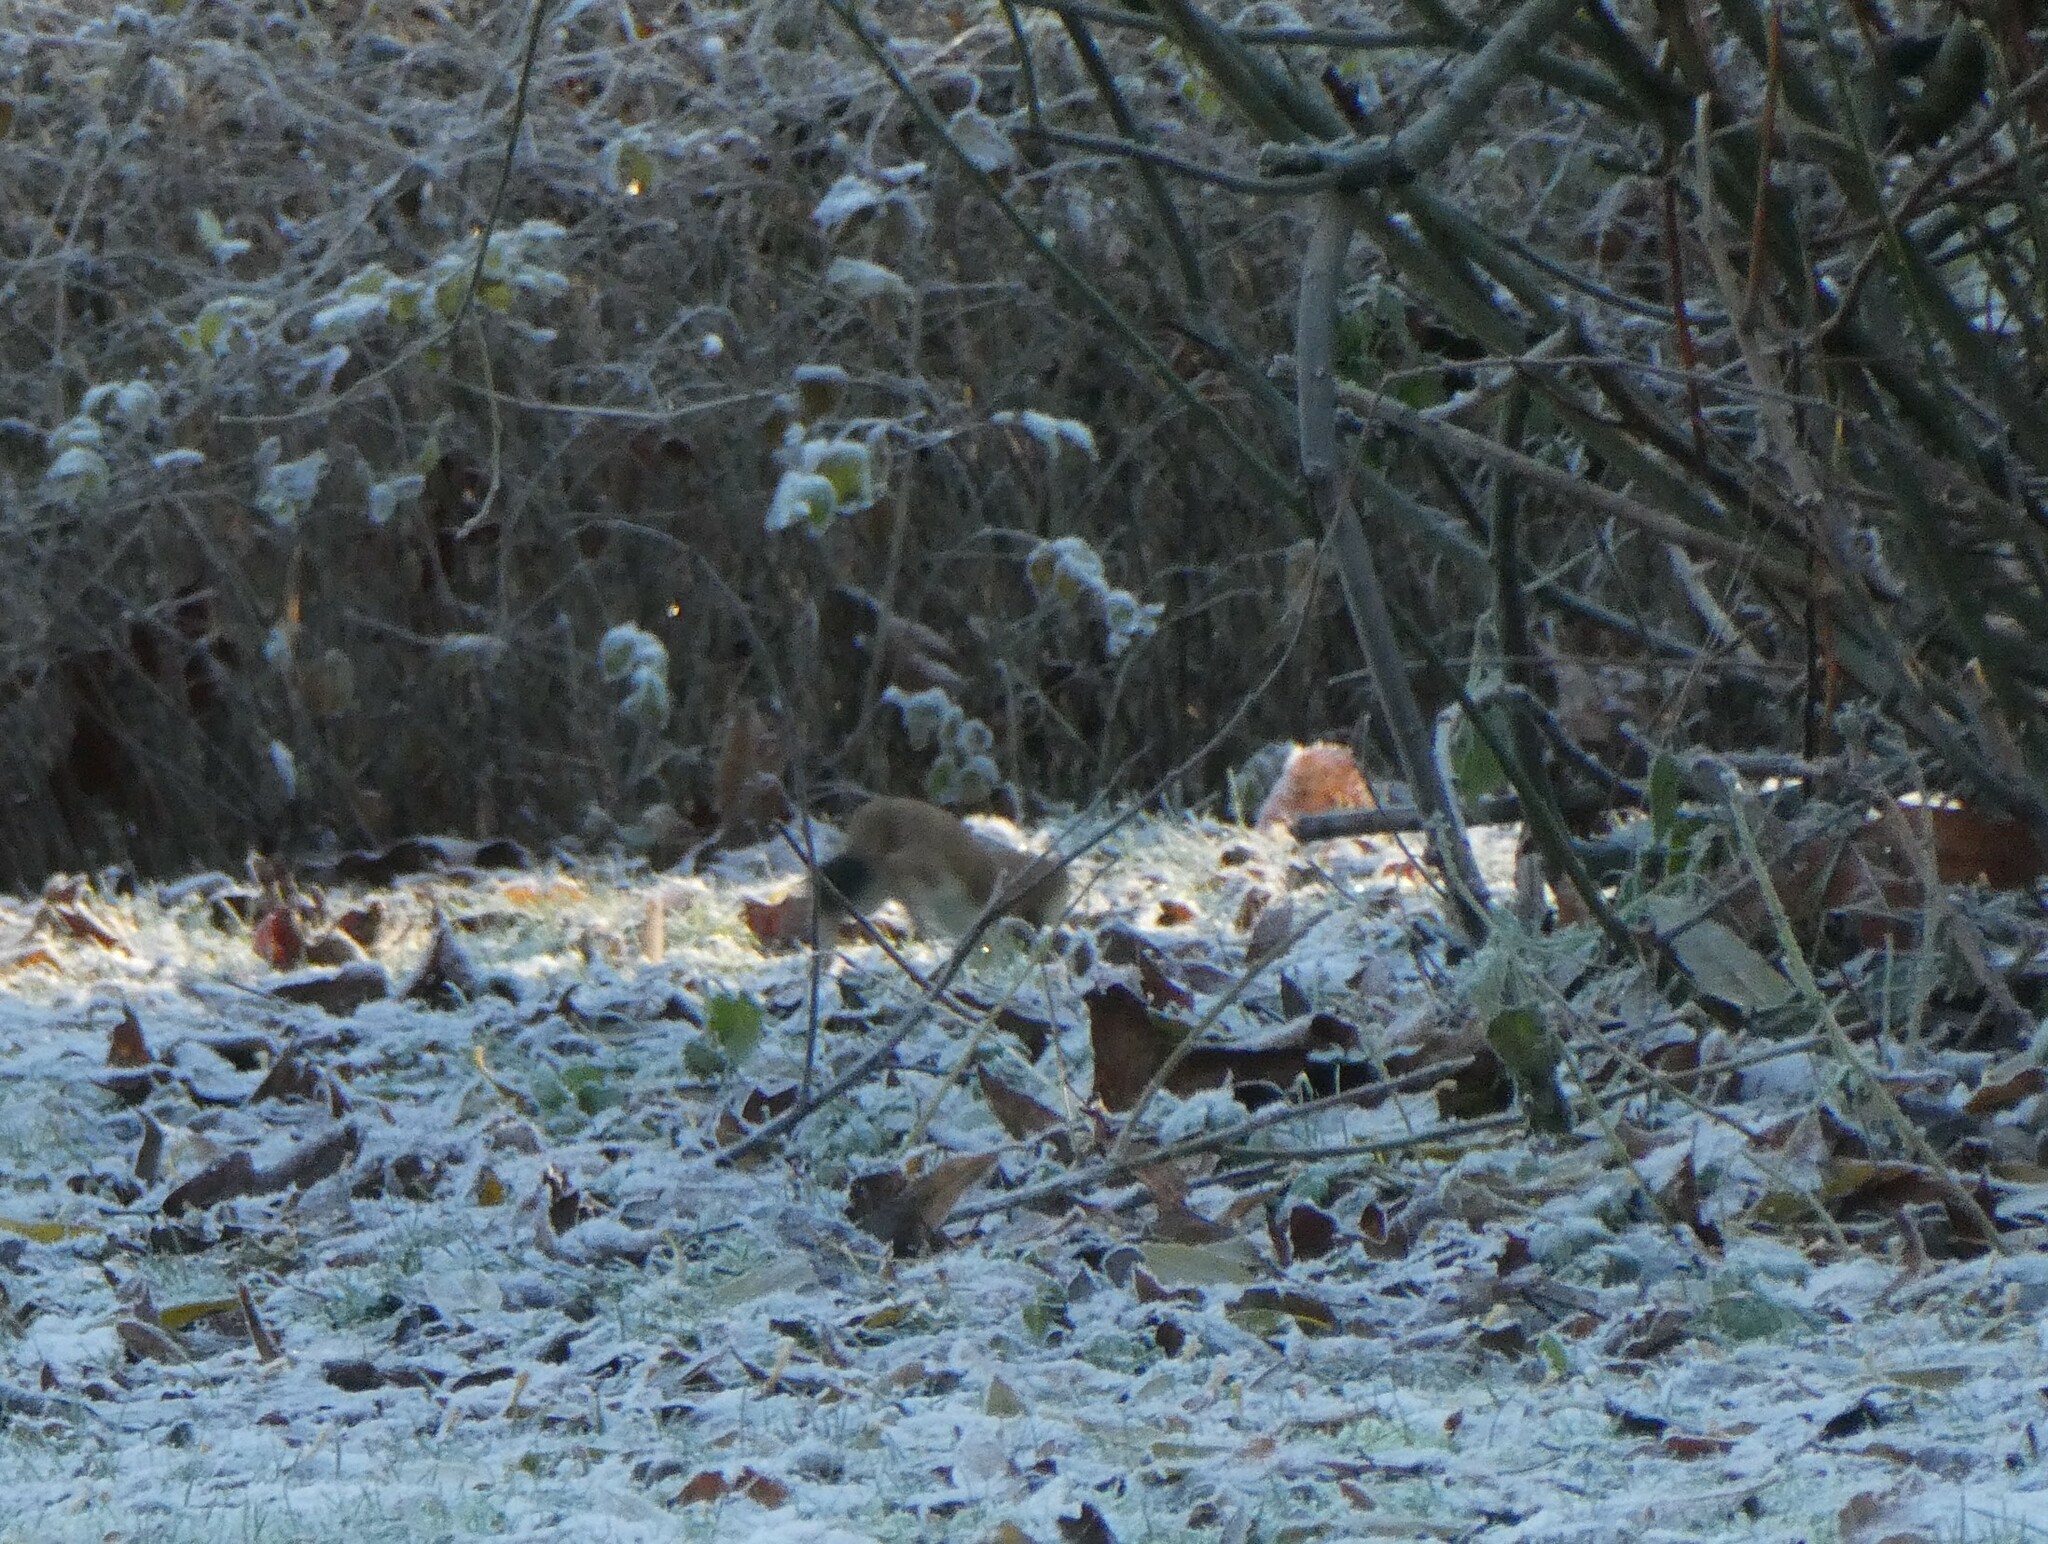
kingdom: Animalia
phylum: Chordata
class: Mammalia
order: Carnivora
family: Mustelidae
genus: Mustela
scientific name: Mustela erminea
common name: Stoat
